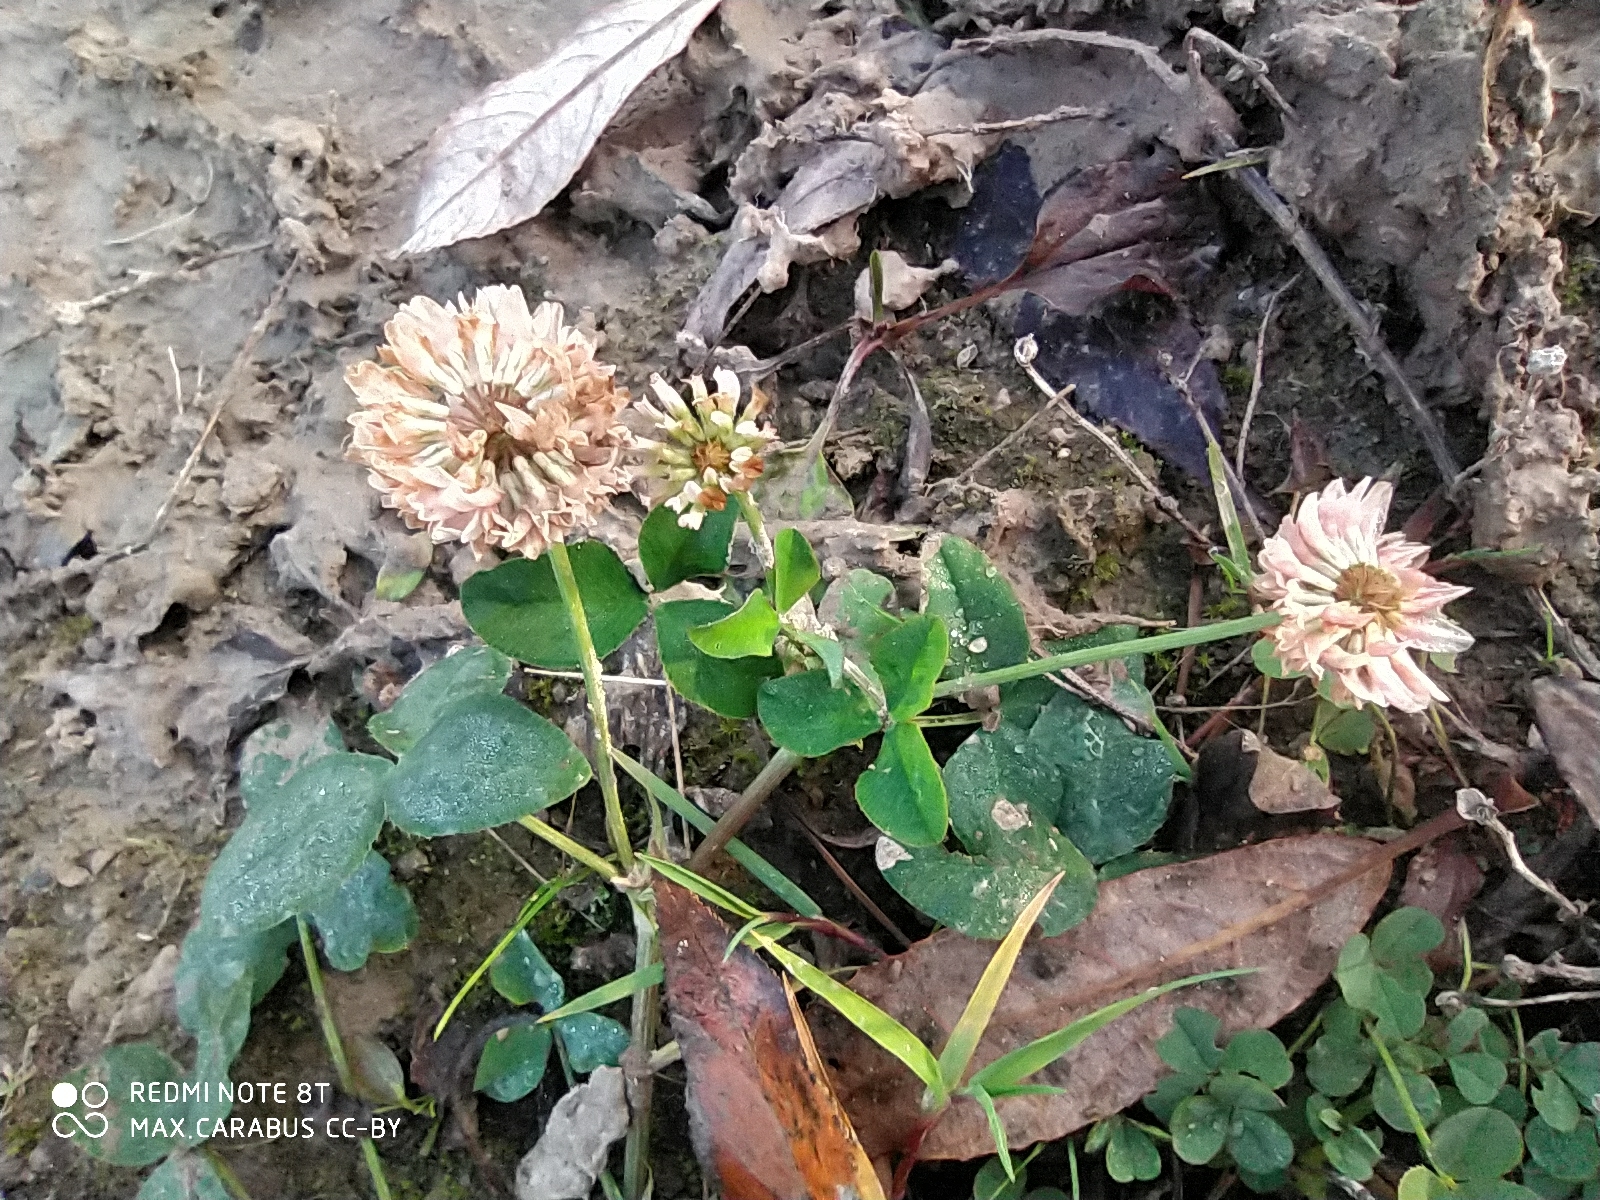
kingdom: Plantae
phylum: Tracheophyta
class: Magnoliopsida
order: Fabales
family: Fabaceae
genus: Trifolium
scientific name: Trifolium hybridum
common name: Alsike clover
